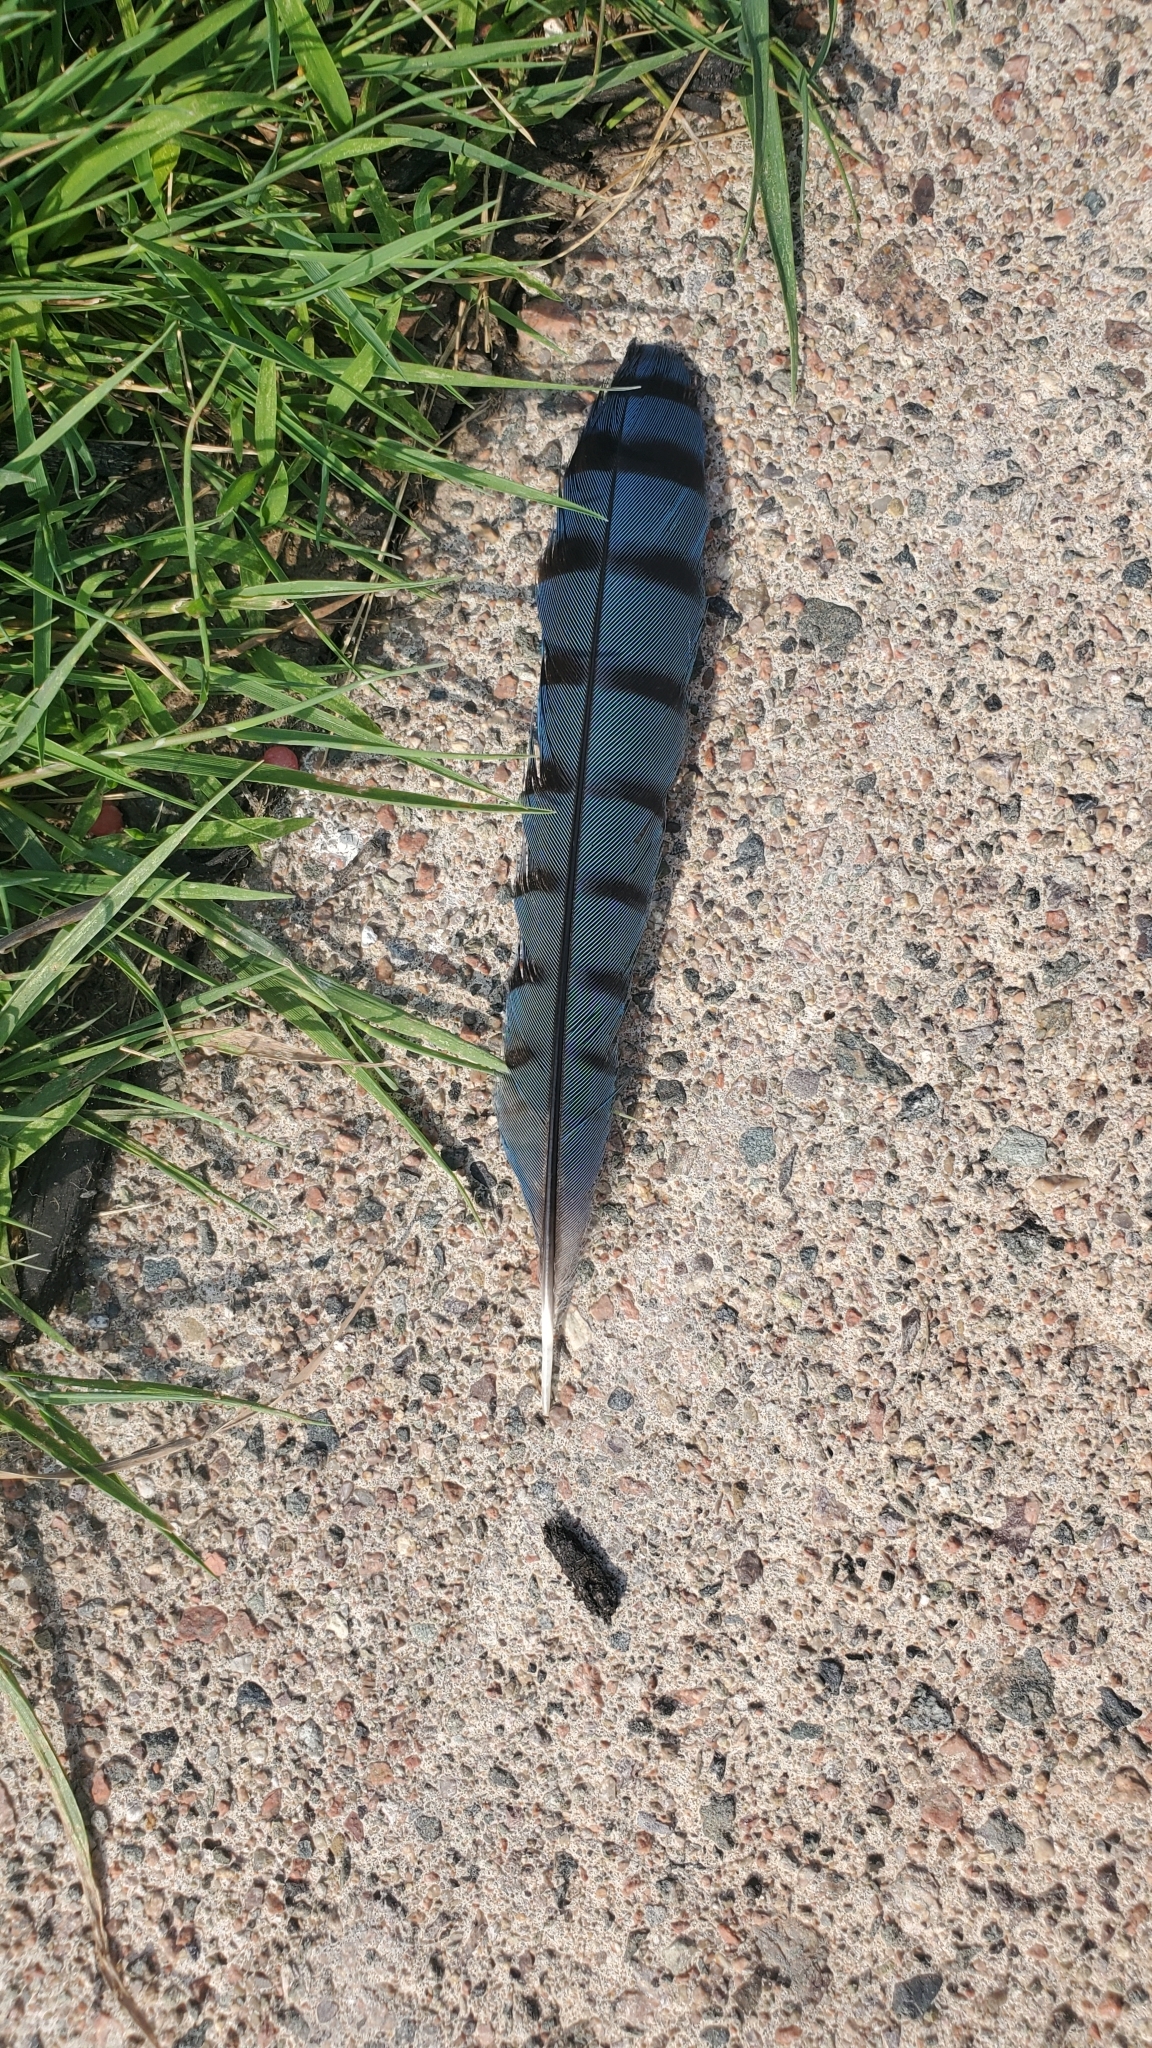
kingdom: Animalia
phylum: Chordata
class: Aves
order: Passeriformes
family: Corvidae
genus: Cyanocitta
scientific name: Cyanocitta cristata
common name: Blue jay
